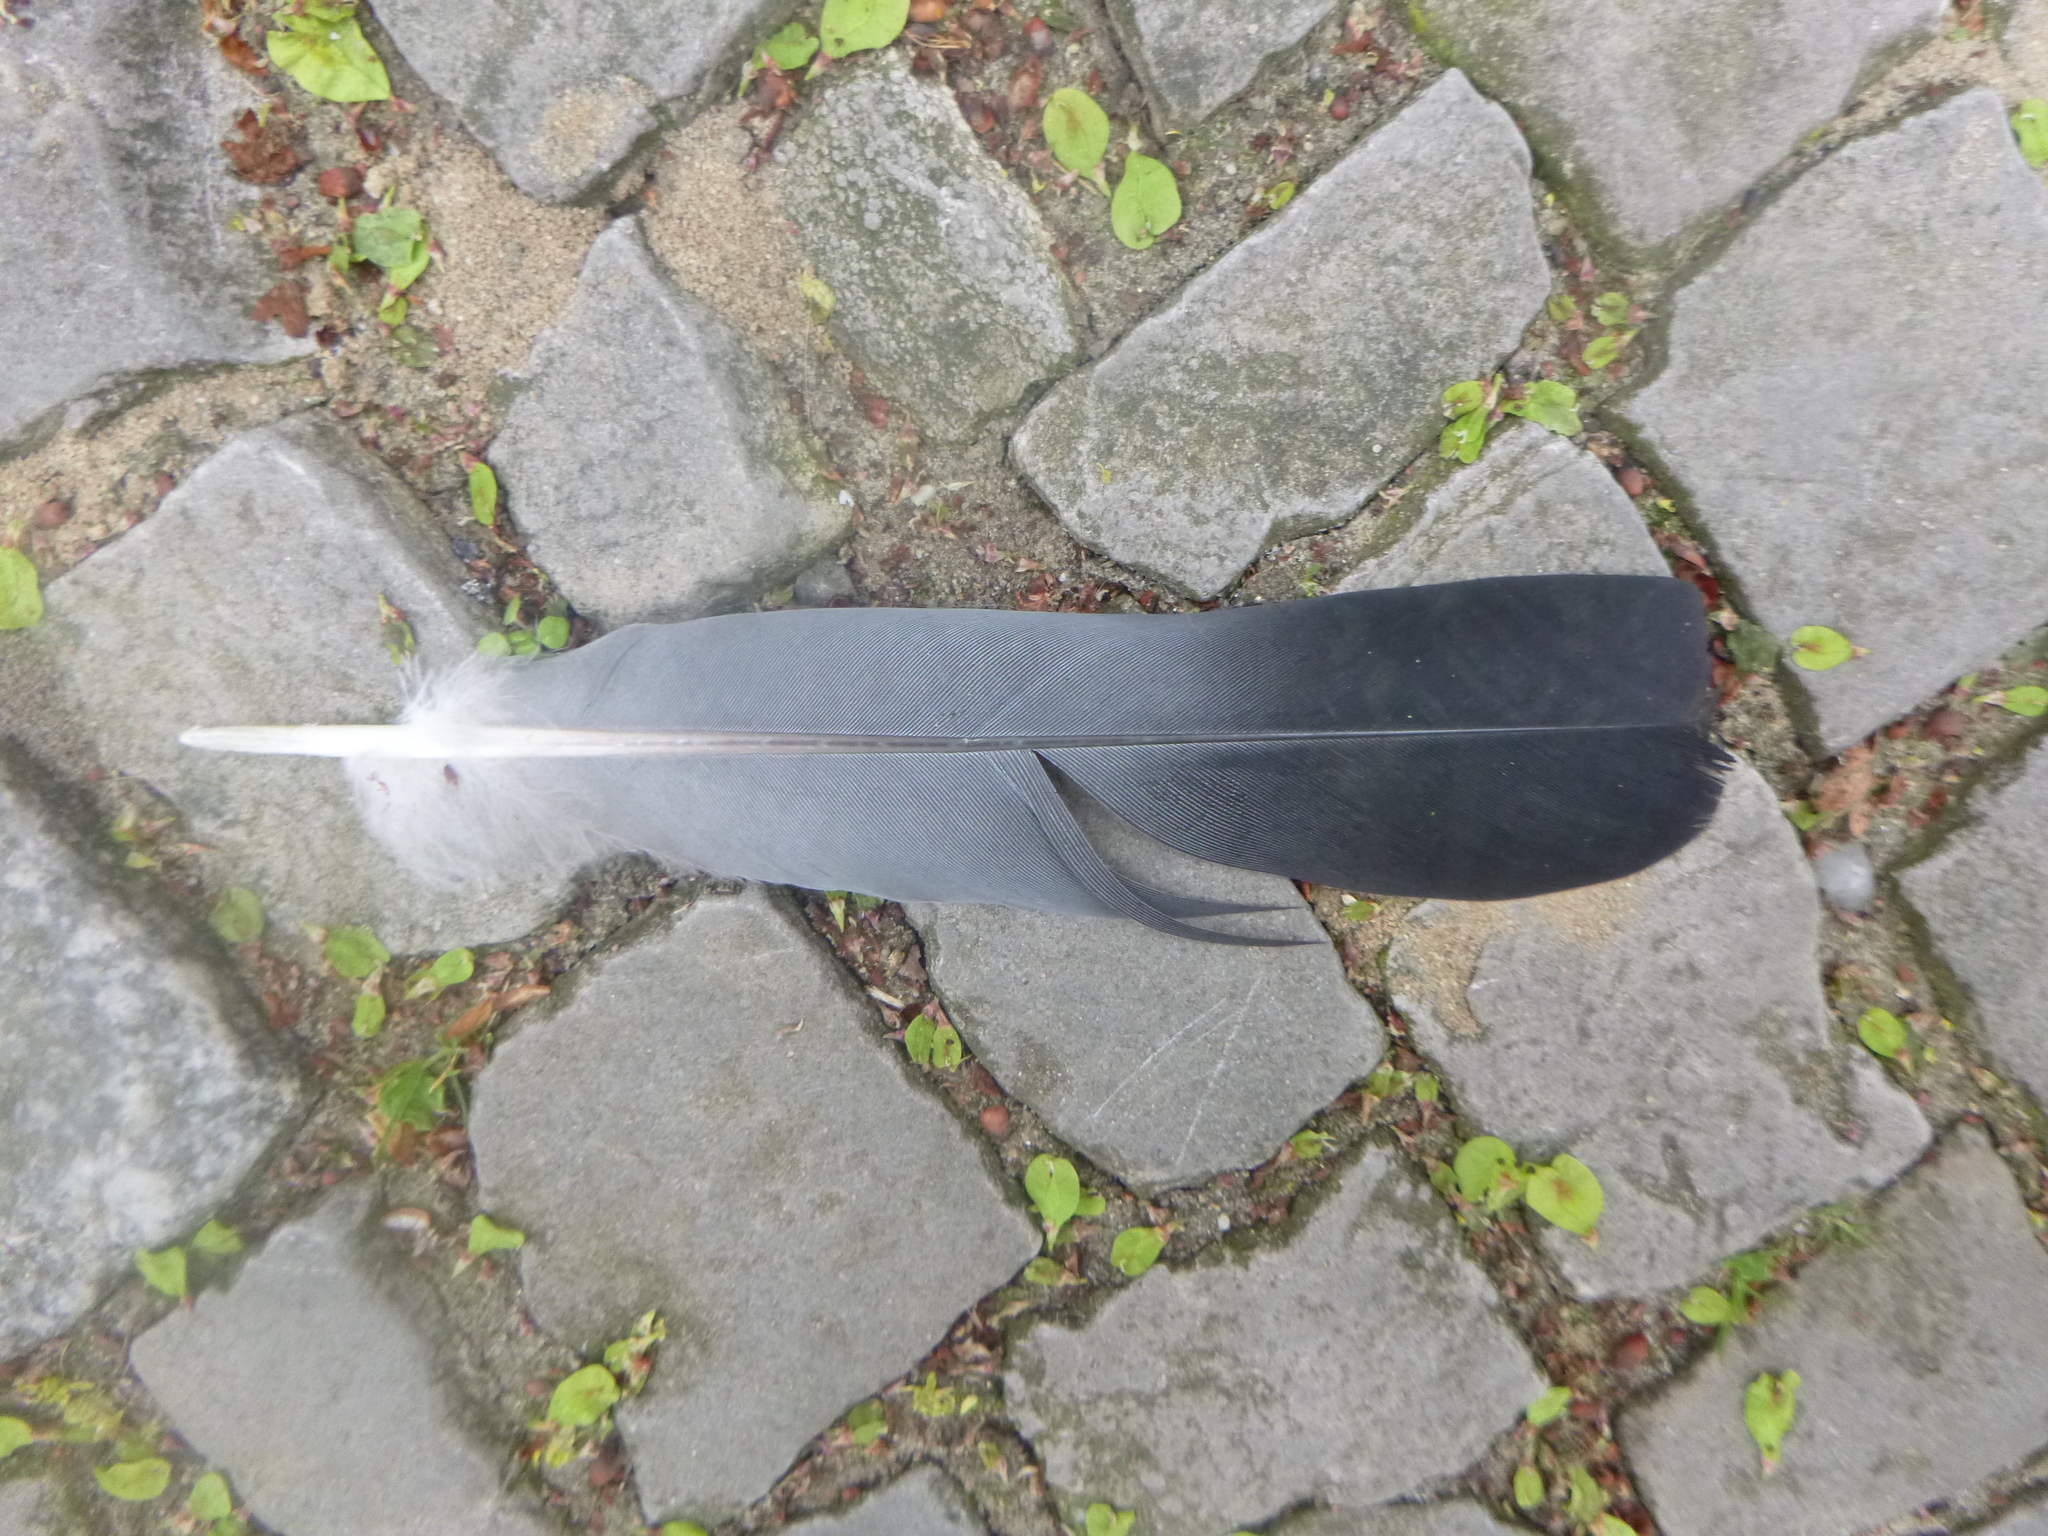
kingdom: Animalia
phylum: Chordata
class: Aves
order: Columbiformes
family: Columbidae
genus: Columba
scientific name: Columba palumbus
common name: Common wood pigeon
